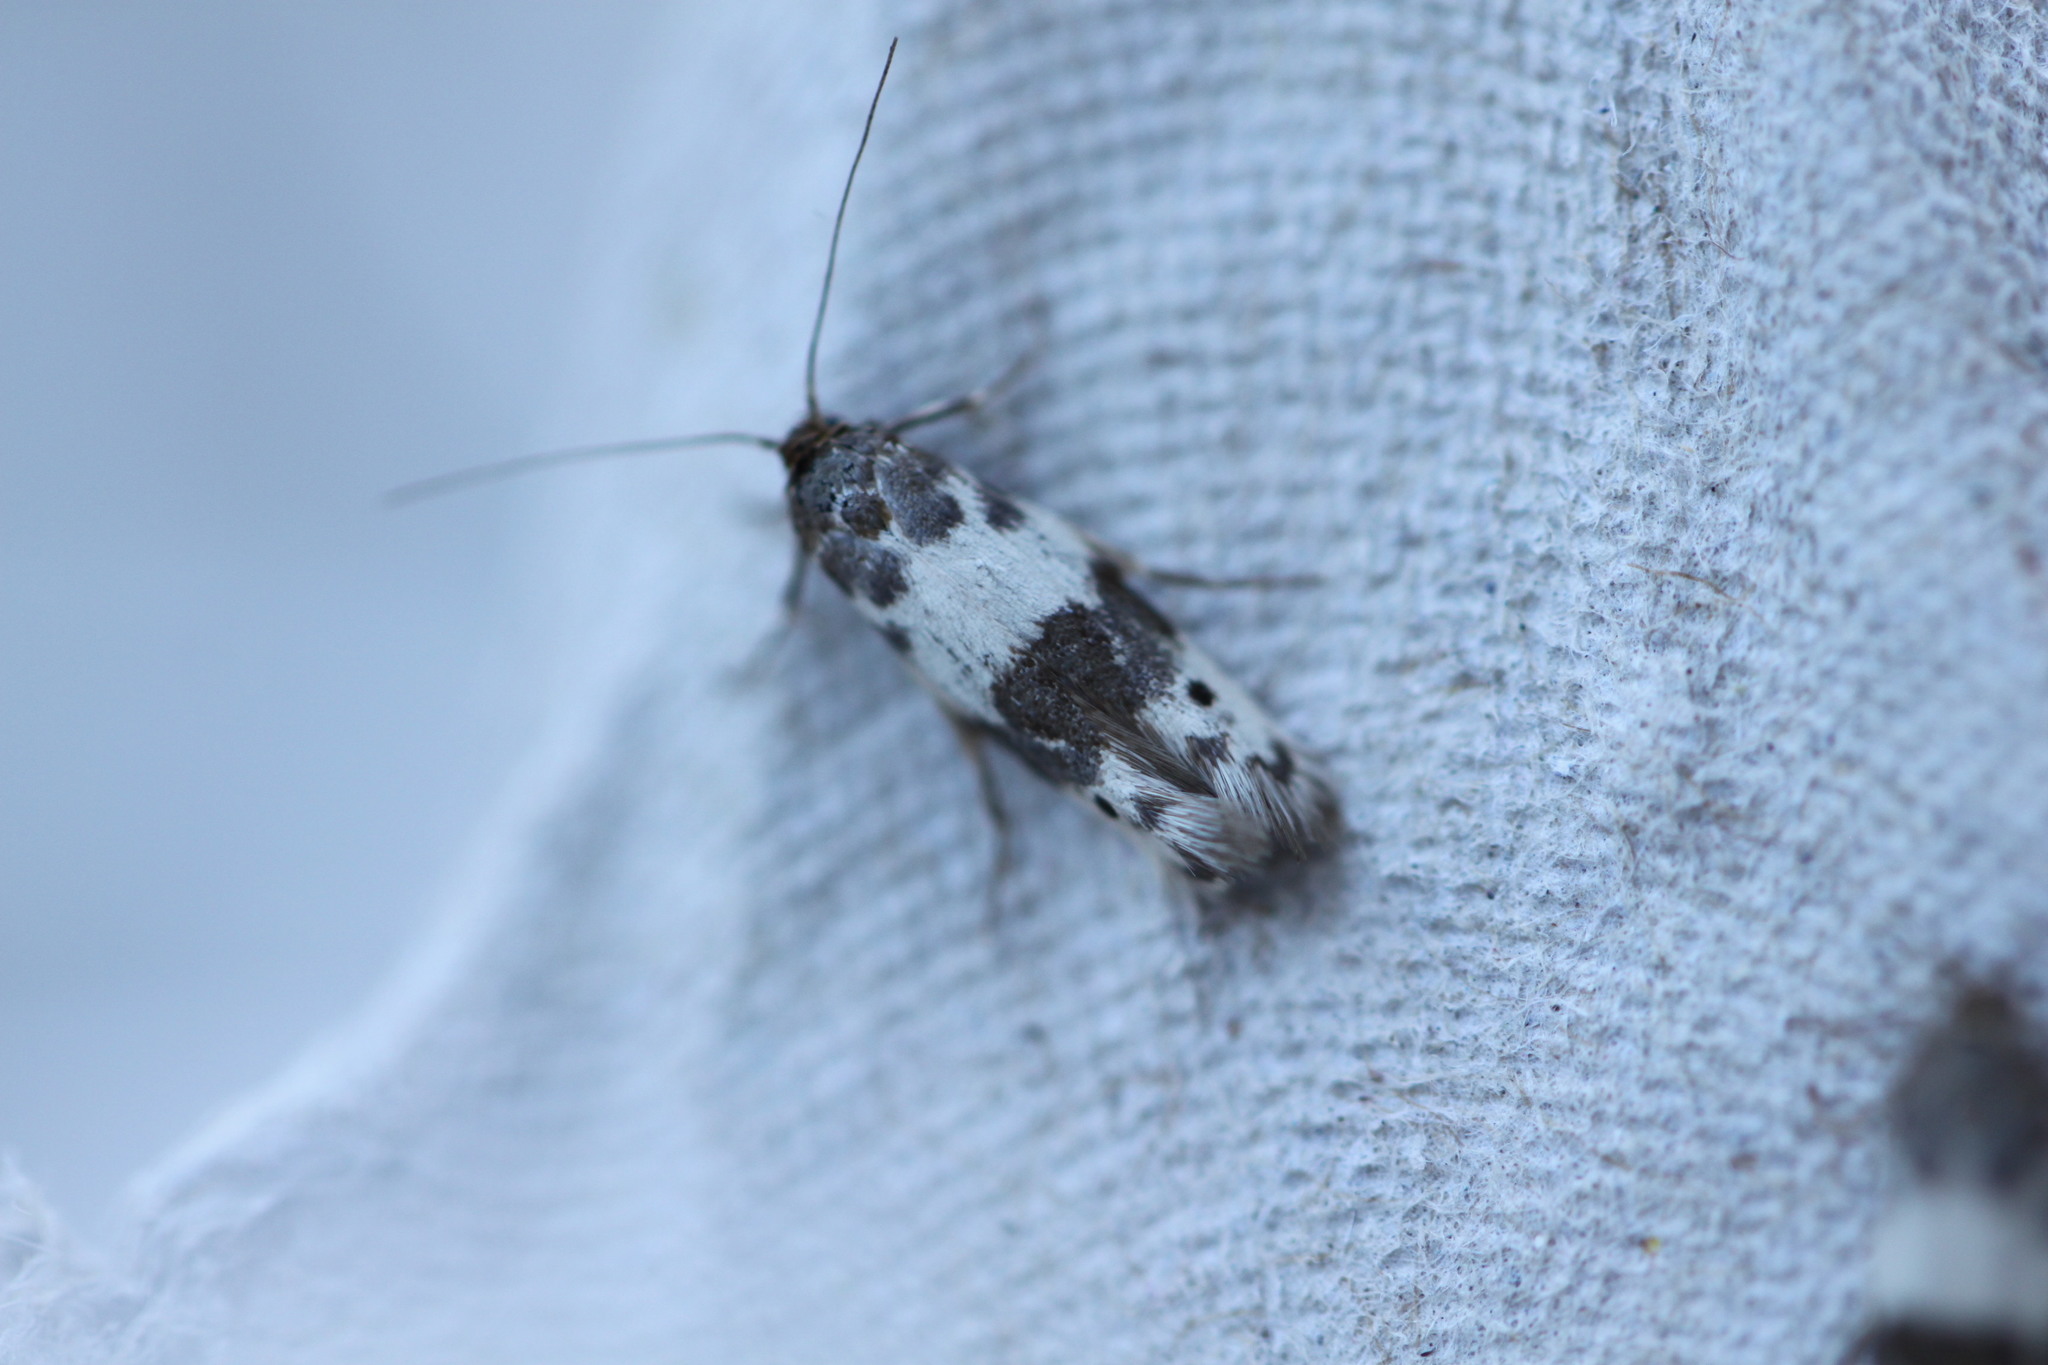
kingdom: Animalia
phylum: Arthropoda
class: Insecta
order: Lepidoptera
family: Scythrididae
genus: Enolmis
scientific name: Enolmis acanthella
